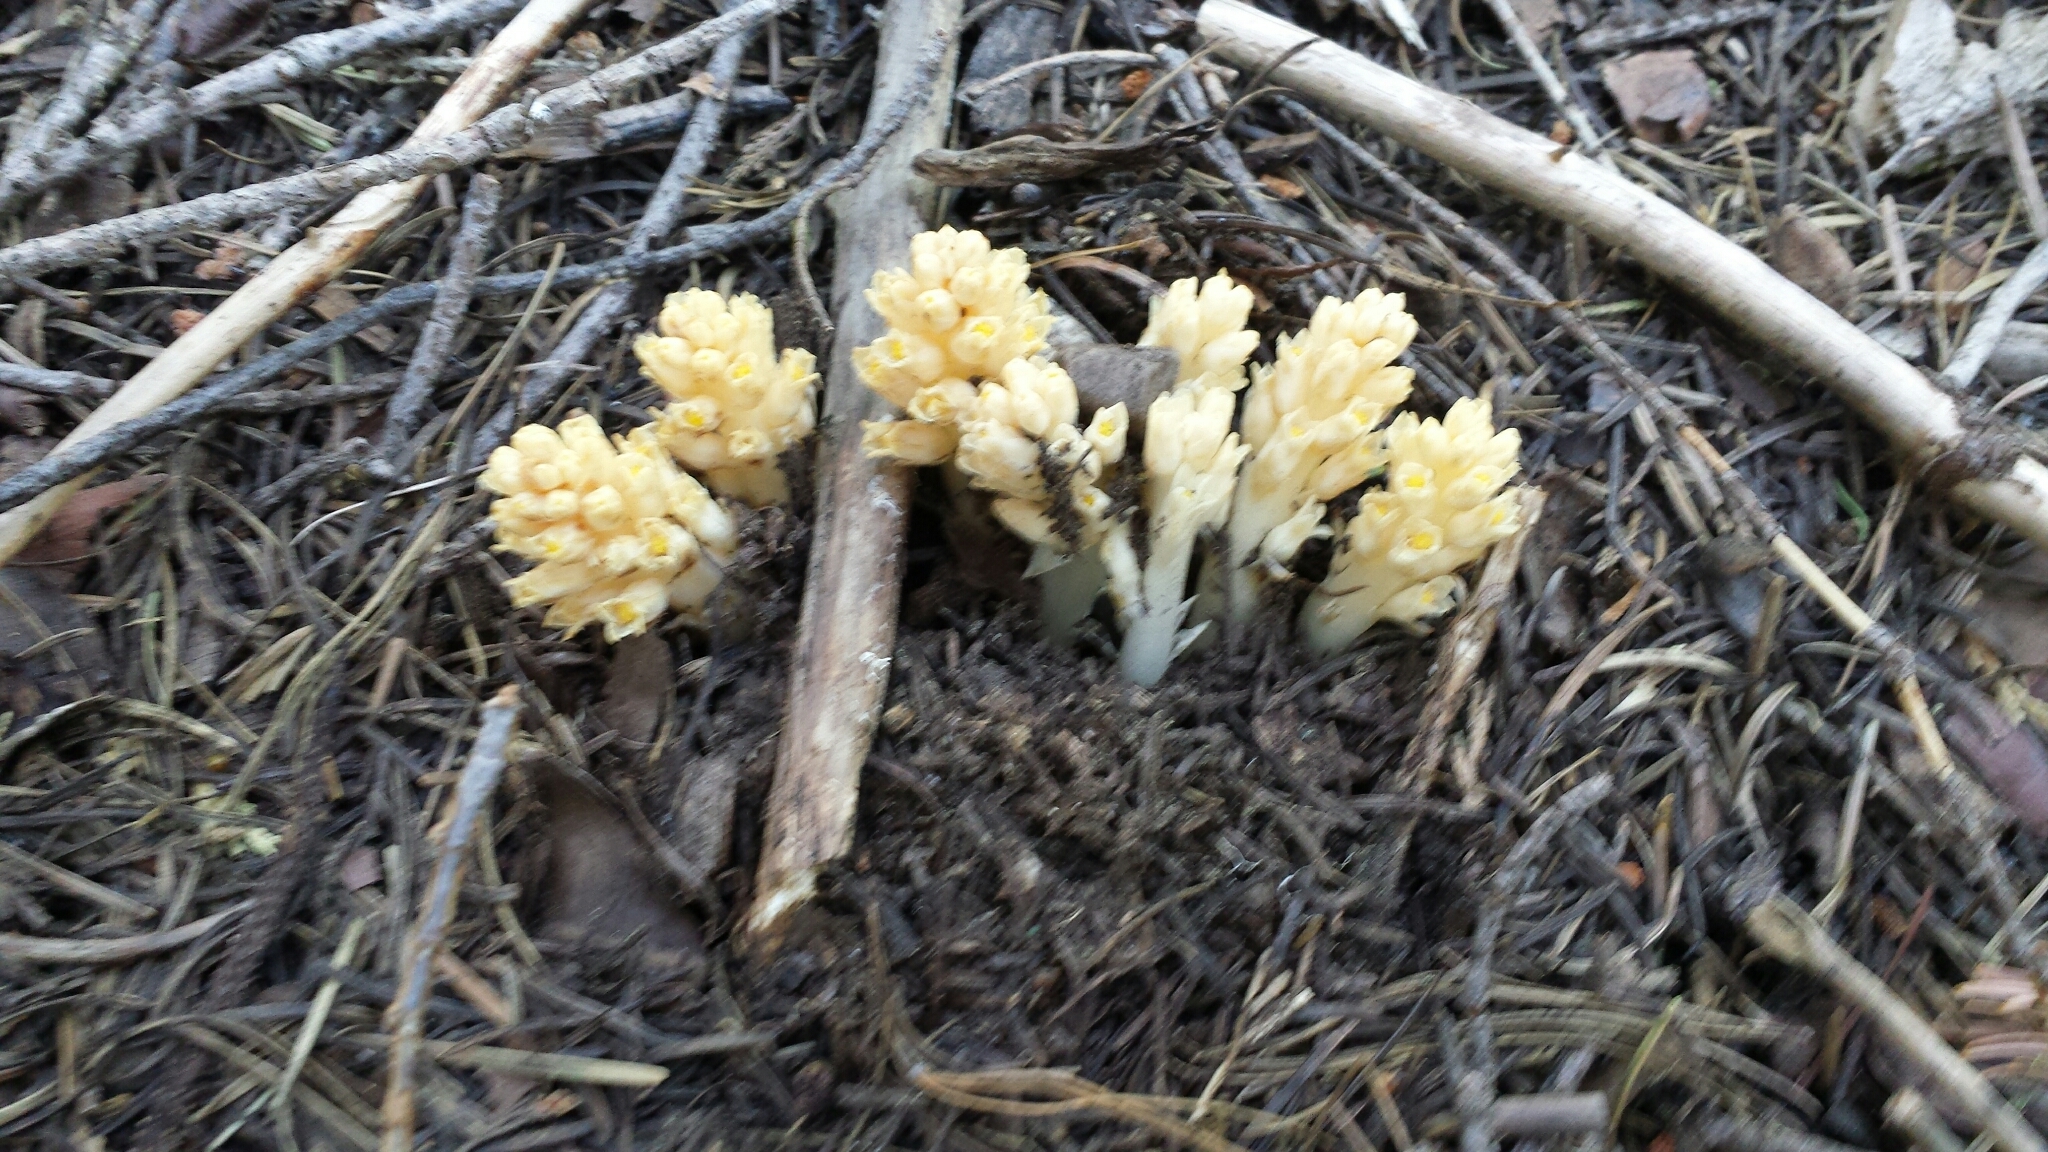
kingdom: Plantae
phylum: Tracheophyta
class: Magnoliopsida
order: Ericales
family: Ericaceae
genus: Pleuricospora
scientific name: Pleuricospora fimbriolata
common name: Fringed pinesap
